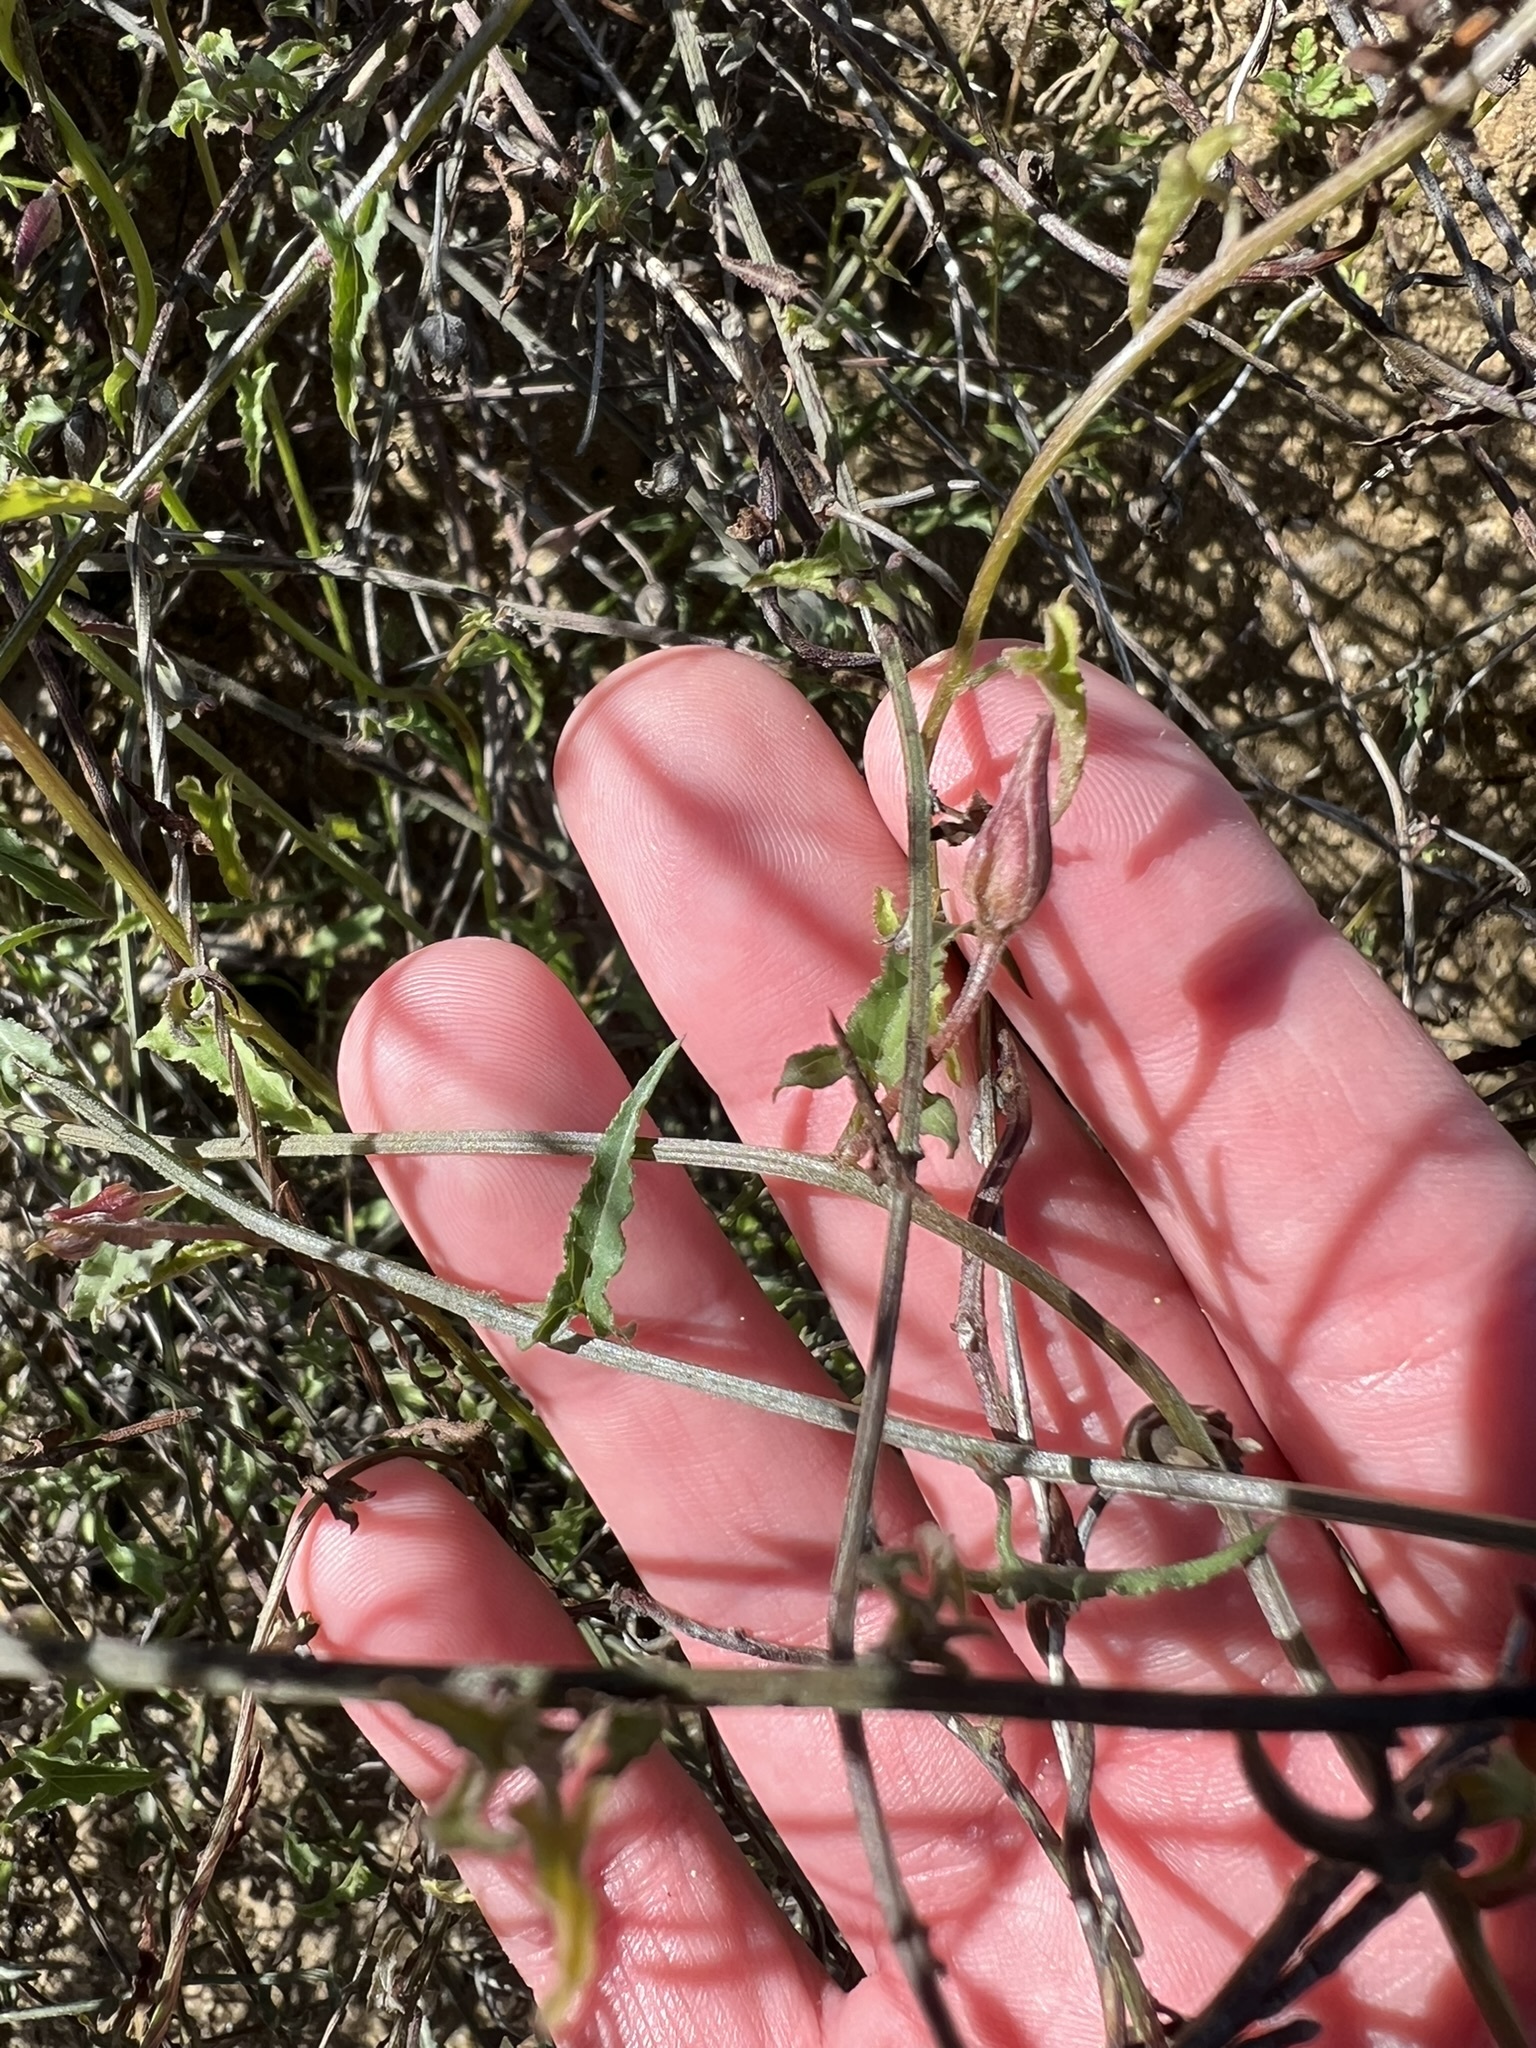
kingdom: Plantae
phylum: Tracheophyta
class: Magnoliopsida
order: Solanales
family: Convolvulaceae
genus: Calystegia
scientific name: Calystegia macrostegia
